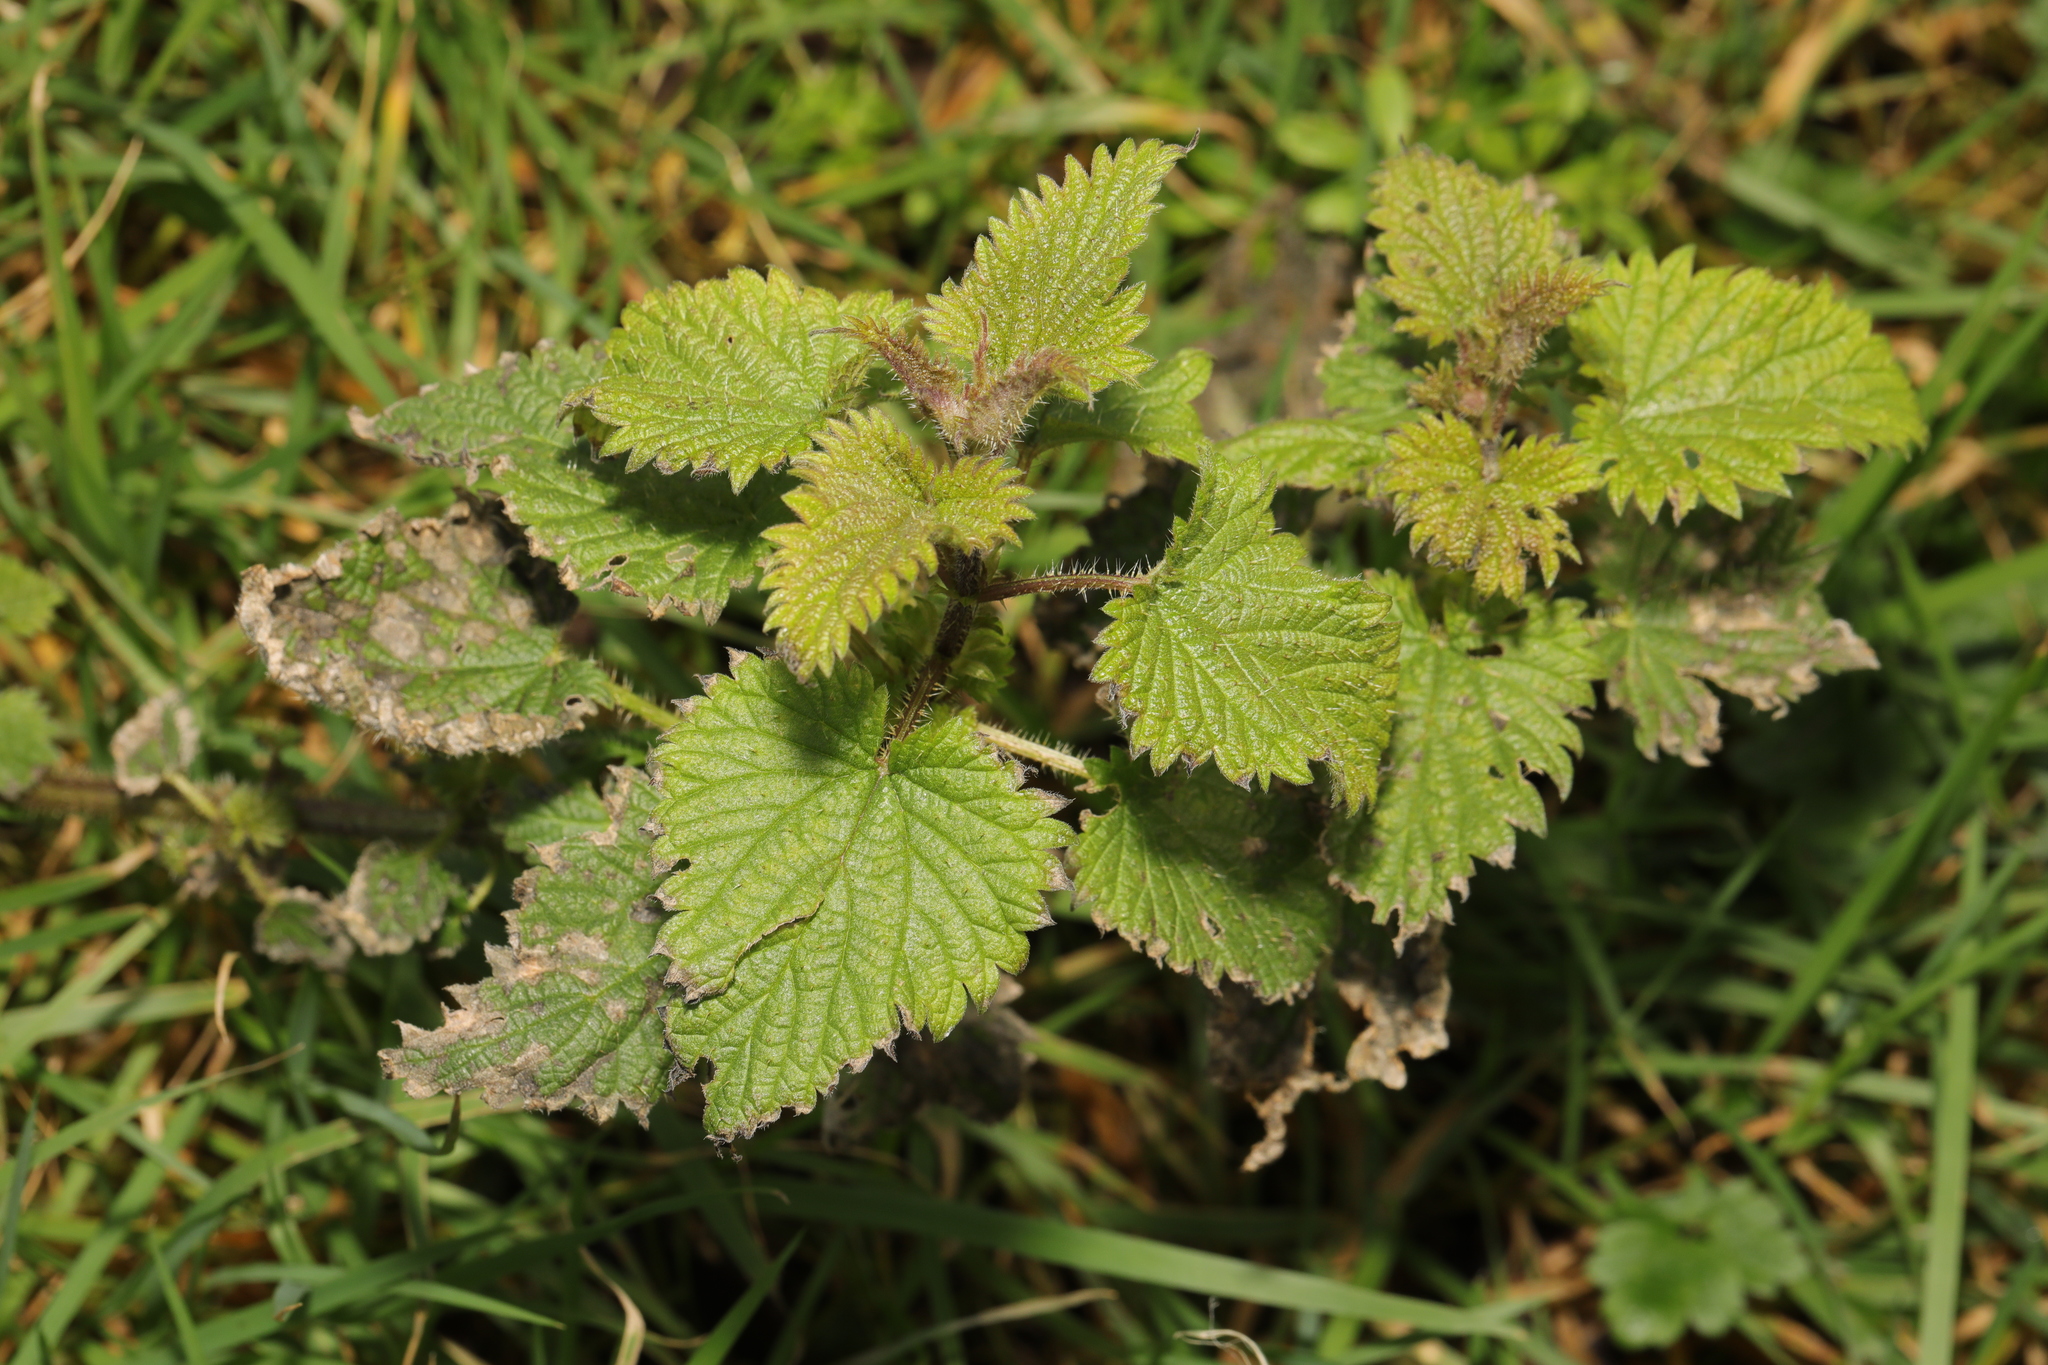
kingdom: Plantae
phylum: Tracheophyta
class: Magnoliopsida
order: Rosales
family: Urticaceae
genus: Urtica
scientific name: Urtica dioica
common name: Common nettle
